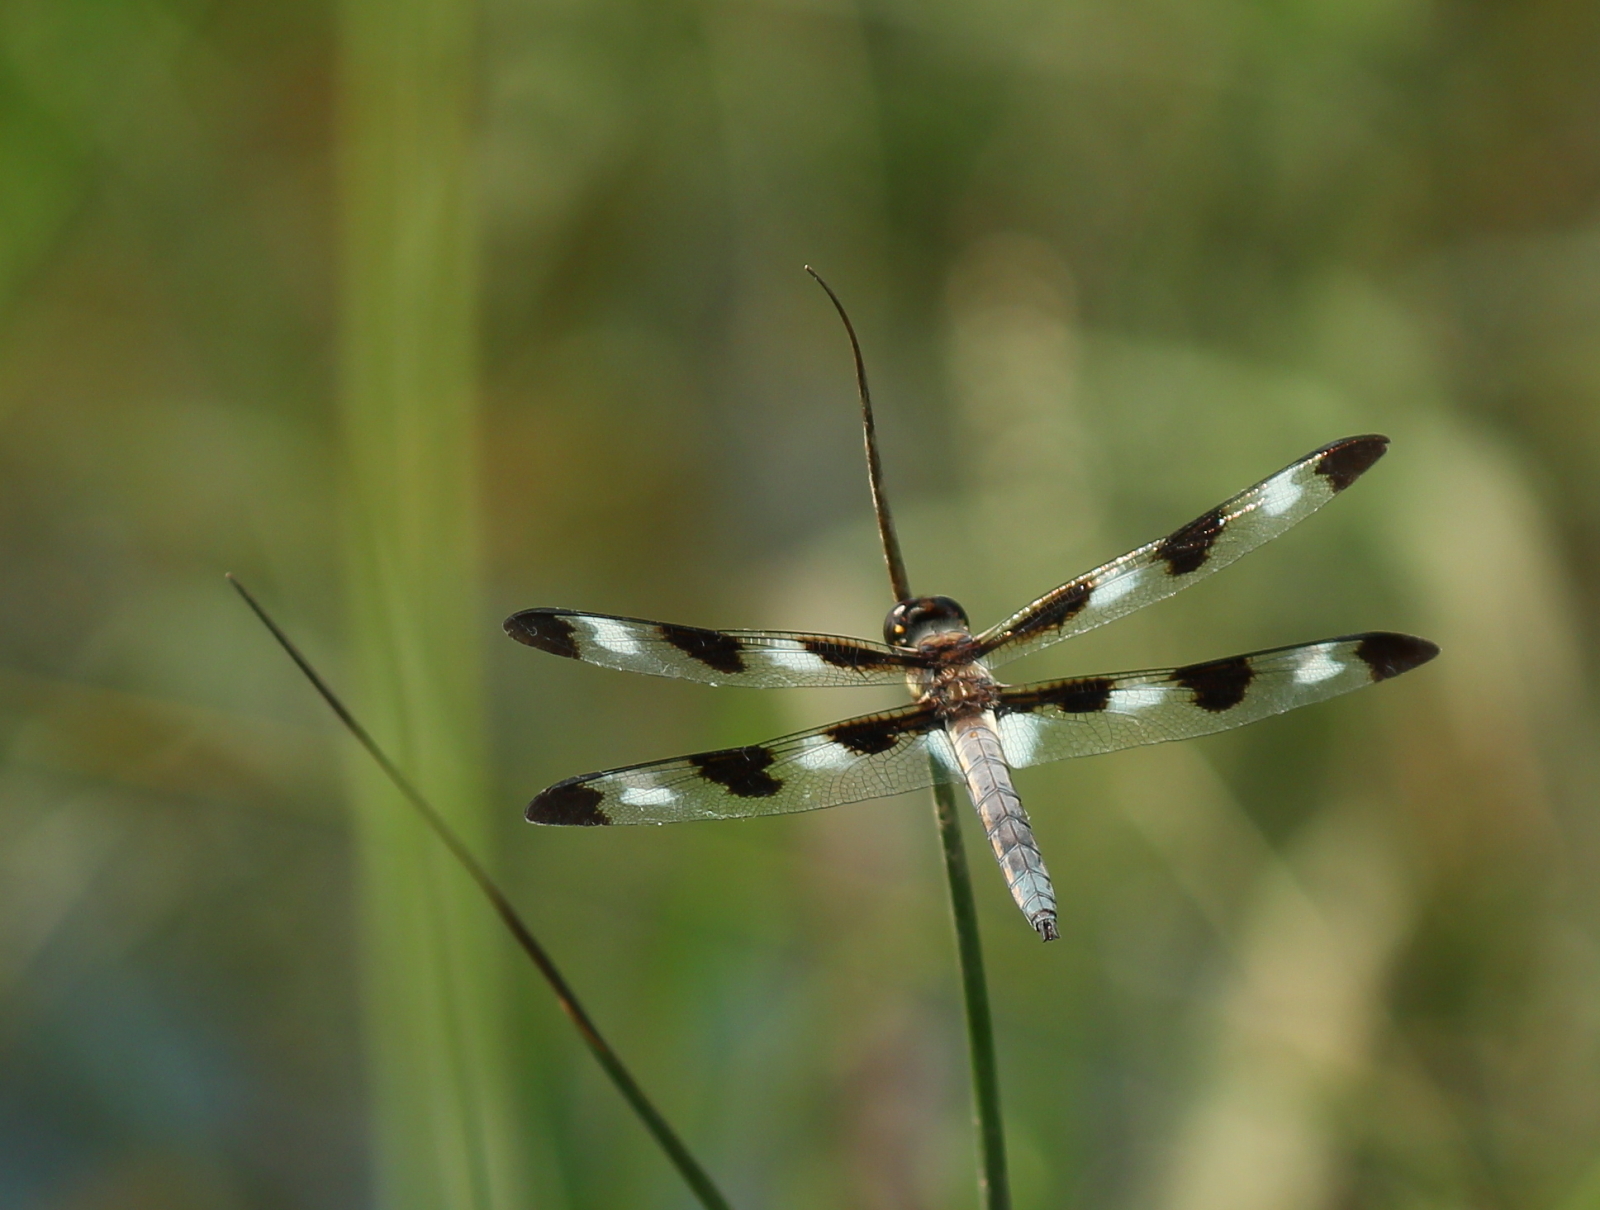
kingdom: Animalia
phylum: Arthropoda
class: Insecta
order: Odonata
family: Libellulidae
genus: Libellula
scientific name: Libellula pulchella
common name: Twelve-spotted skimmer
